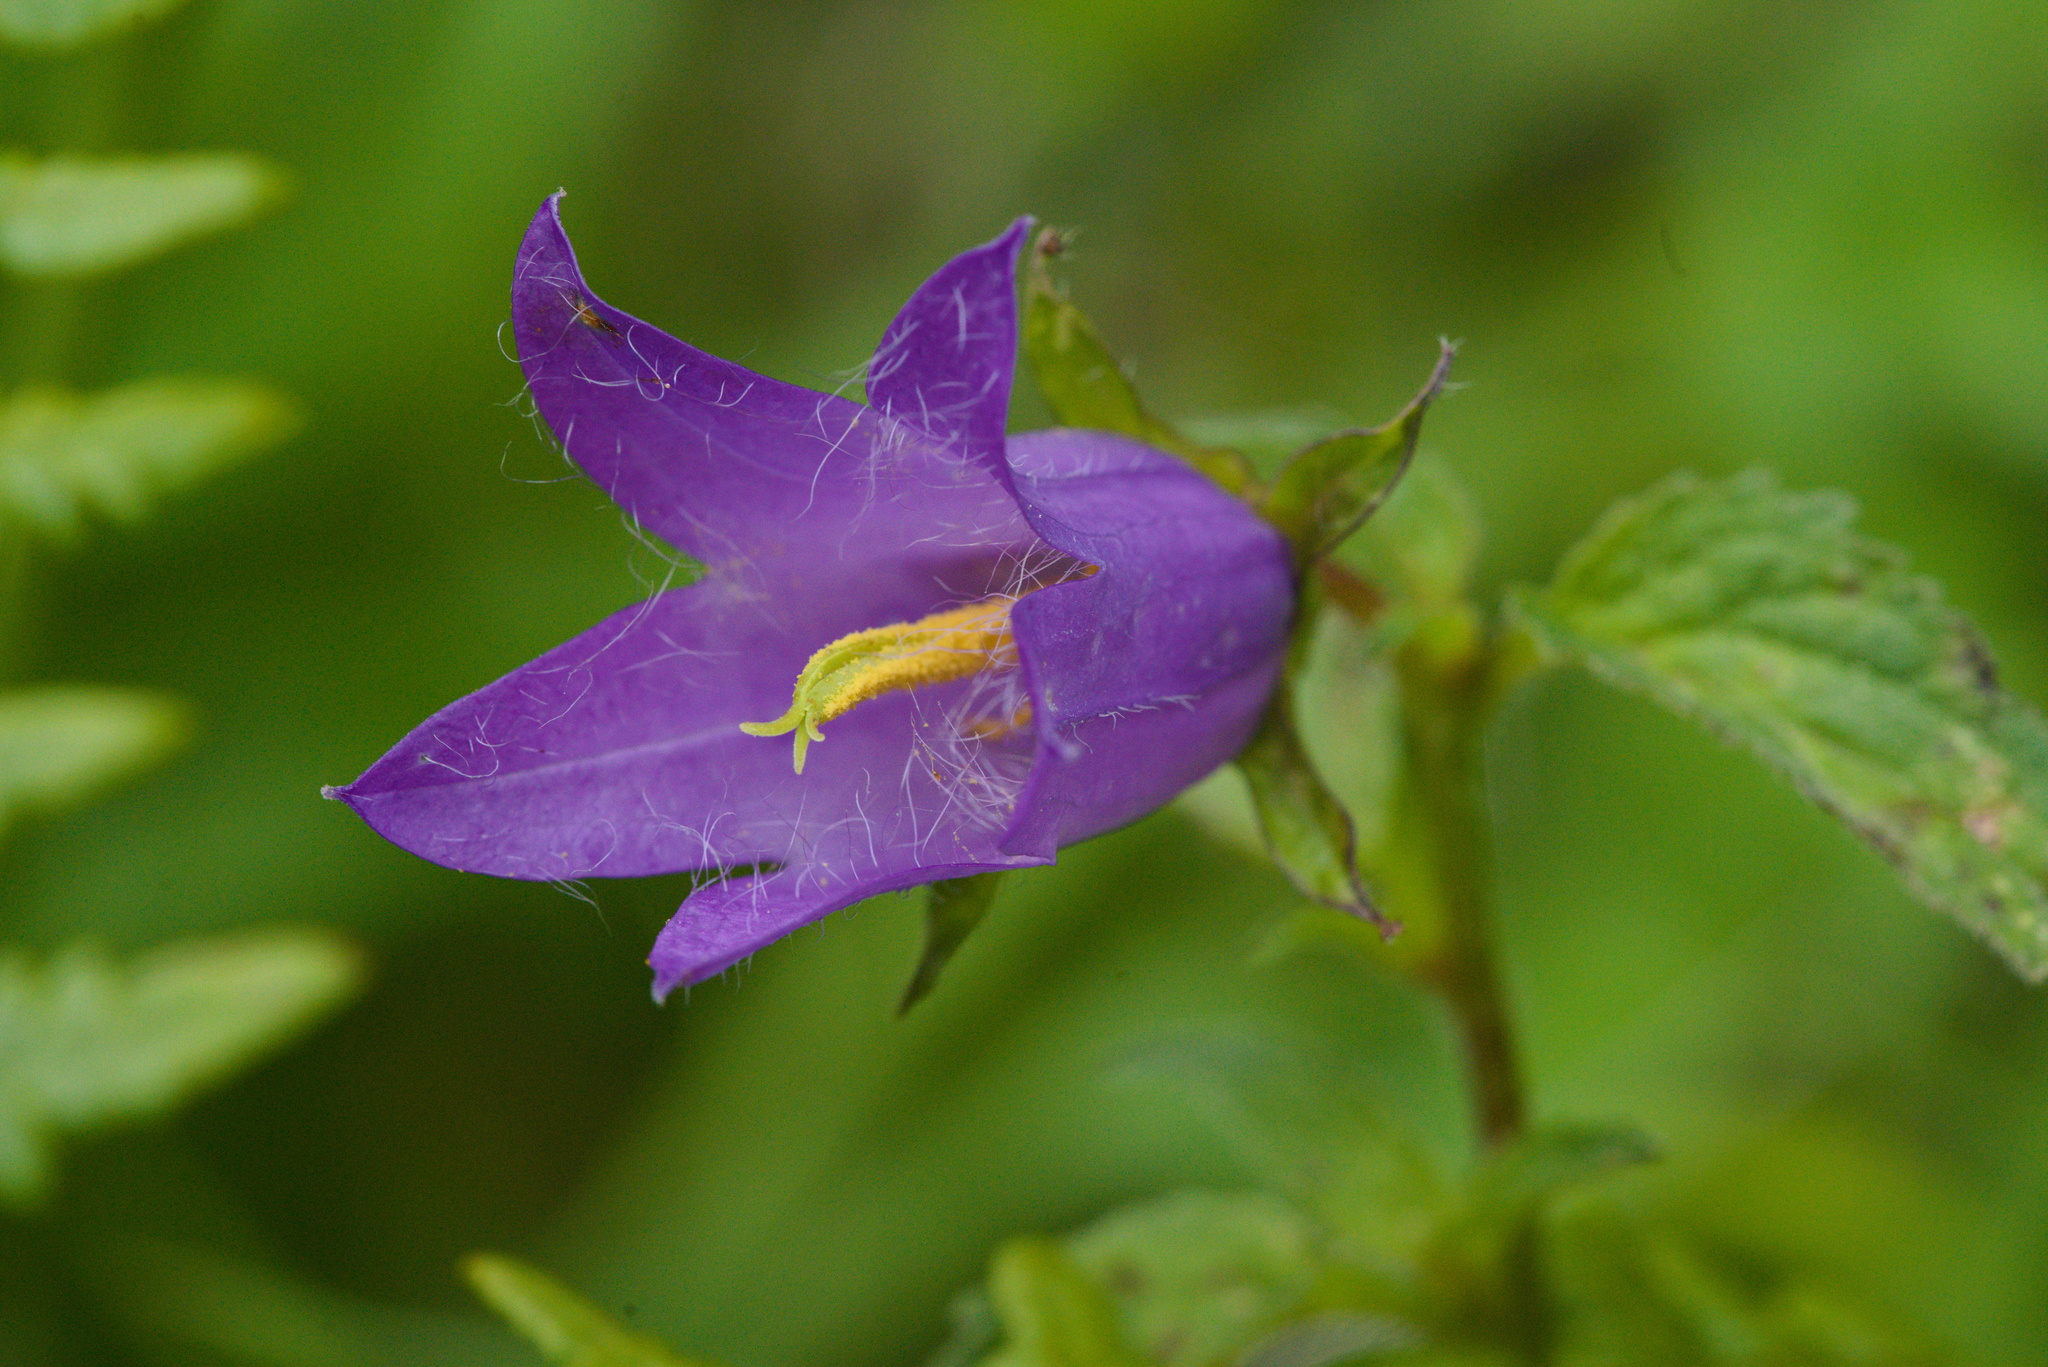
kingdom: Plantae
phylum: Tracheophyta
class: Magnoliopsida
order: Asterales
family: Campanulaceae
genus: Campanula
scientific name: Campanula trachelium
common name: Nettle-leaved bellflower
